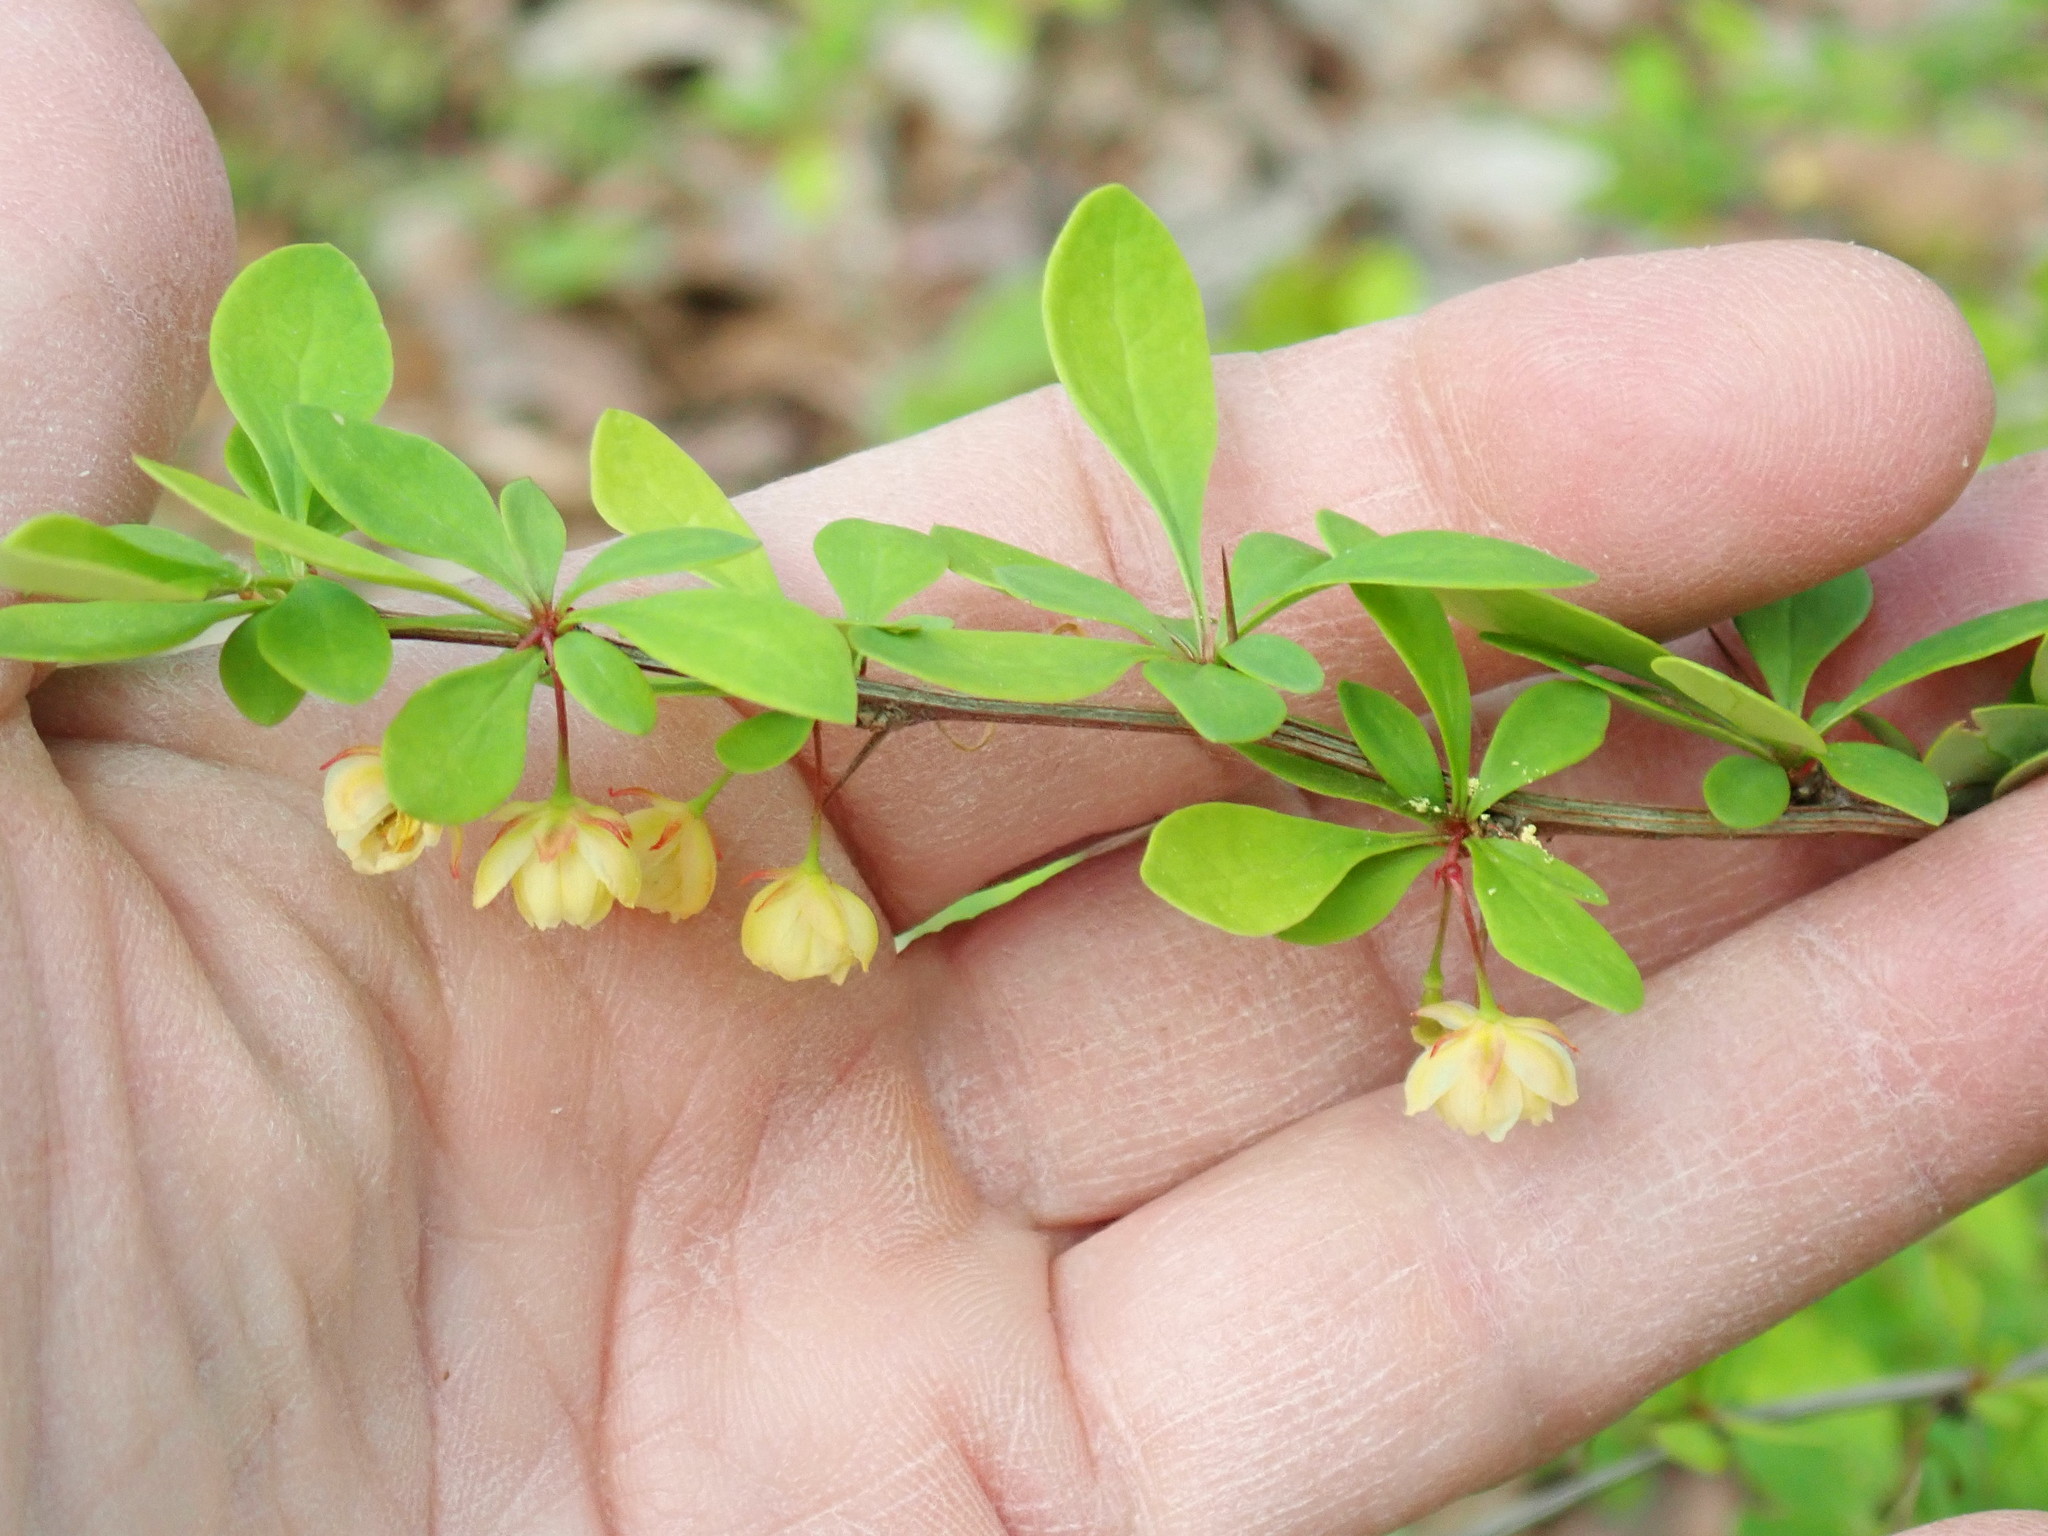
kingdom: Plantae
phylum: Tracheophyta
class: Magnoliopsida
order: Ranunculales
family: Berberidaceae
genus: Berberis
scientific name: Berberis thunbergii
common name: Japanese barberry
